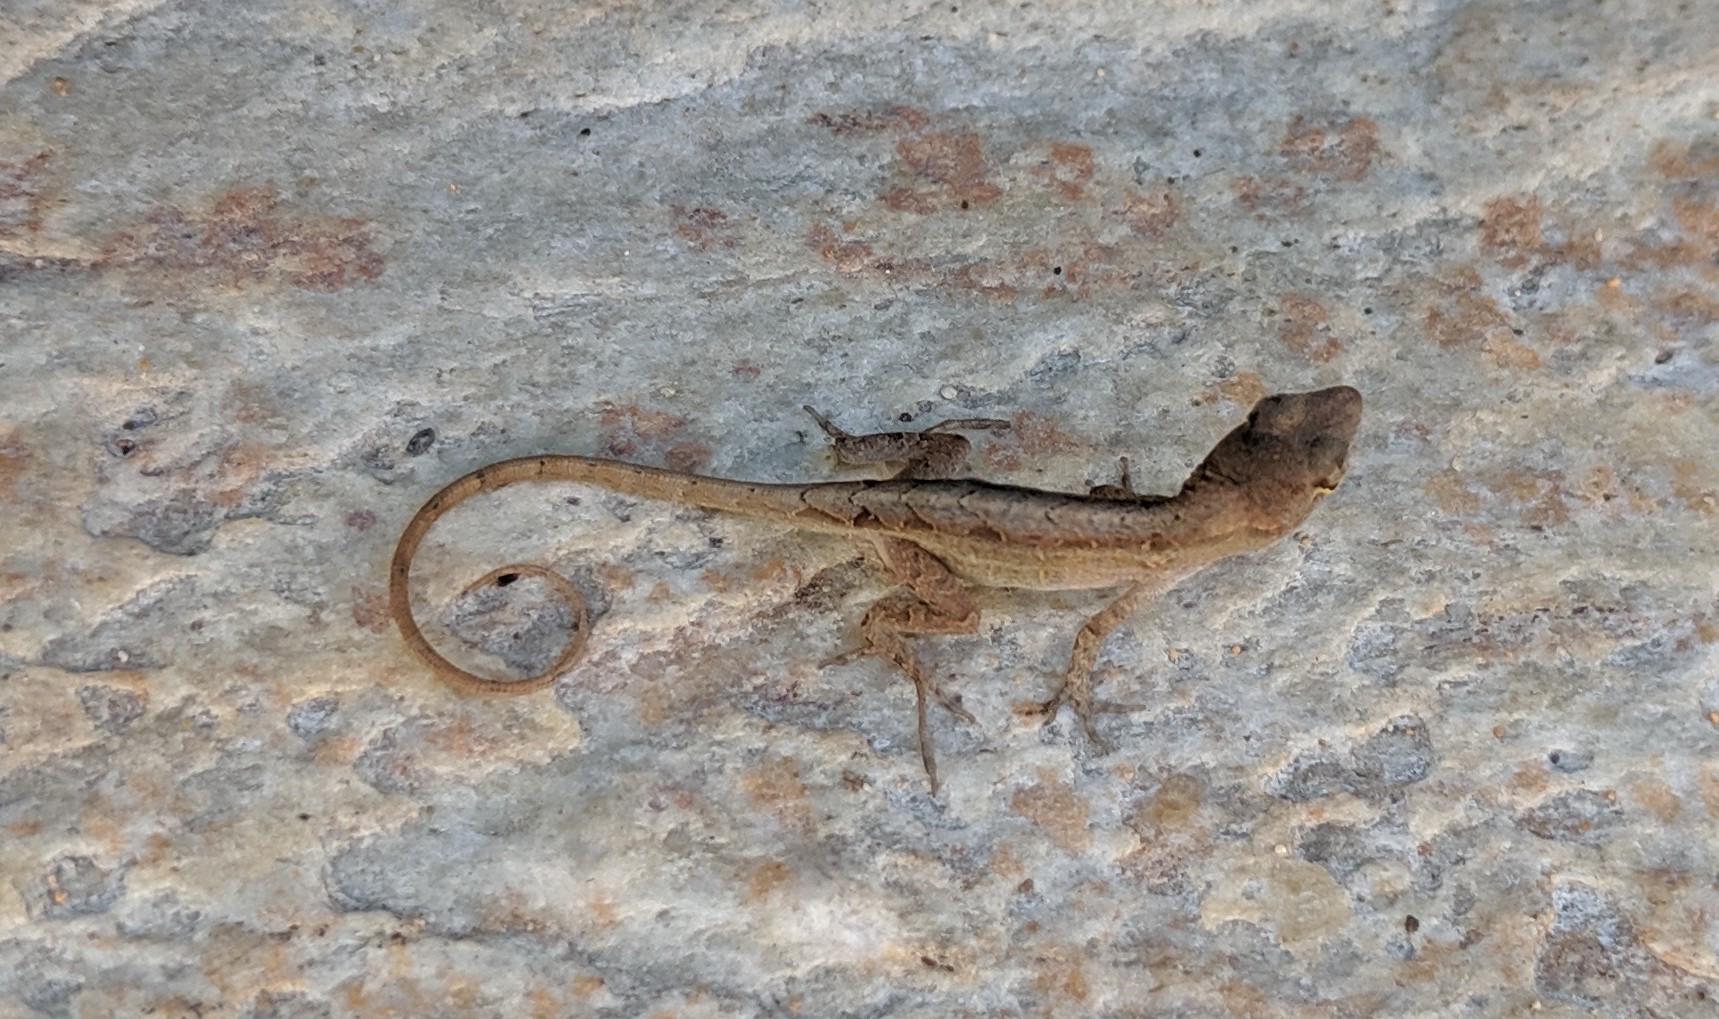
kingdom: Animalia
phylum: Chordata
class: Squamata
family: Dactyloidae
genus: Anolis
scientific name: Anolis sagrei
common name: Brown anole
